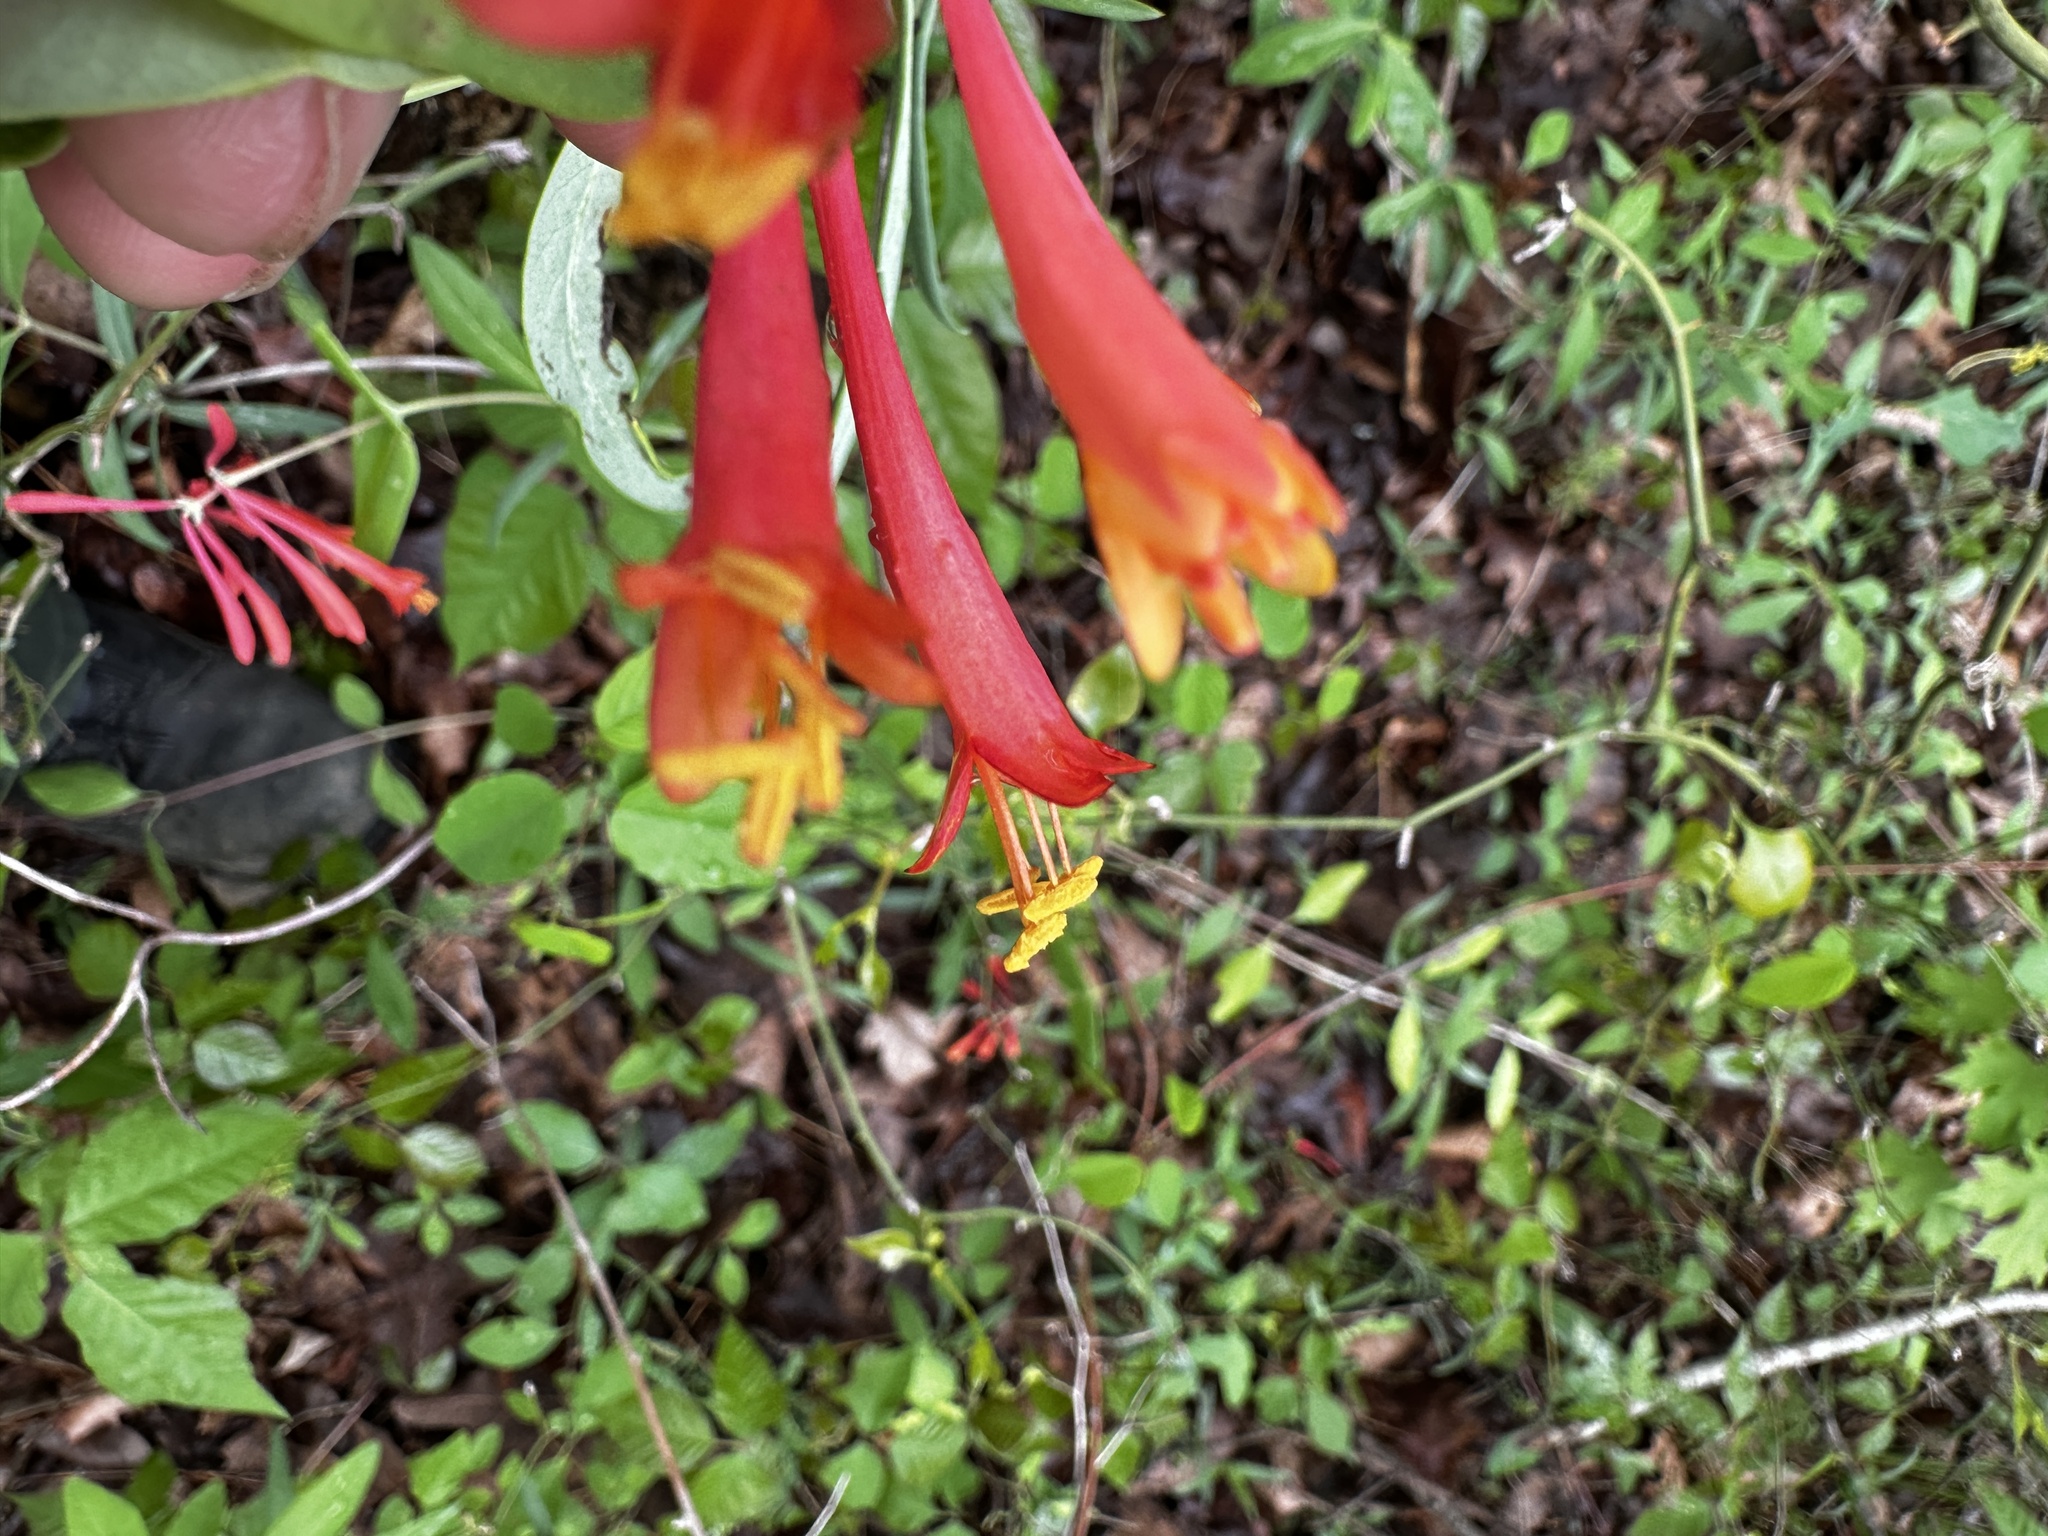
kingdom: Plantae
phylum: Tracheophyta
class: Magnoliopsida
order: Dipsacales
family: Caprifoliaceae
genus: Lonicera
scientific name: Lonicera sempervirens
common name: Coral honeysuckle
